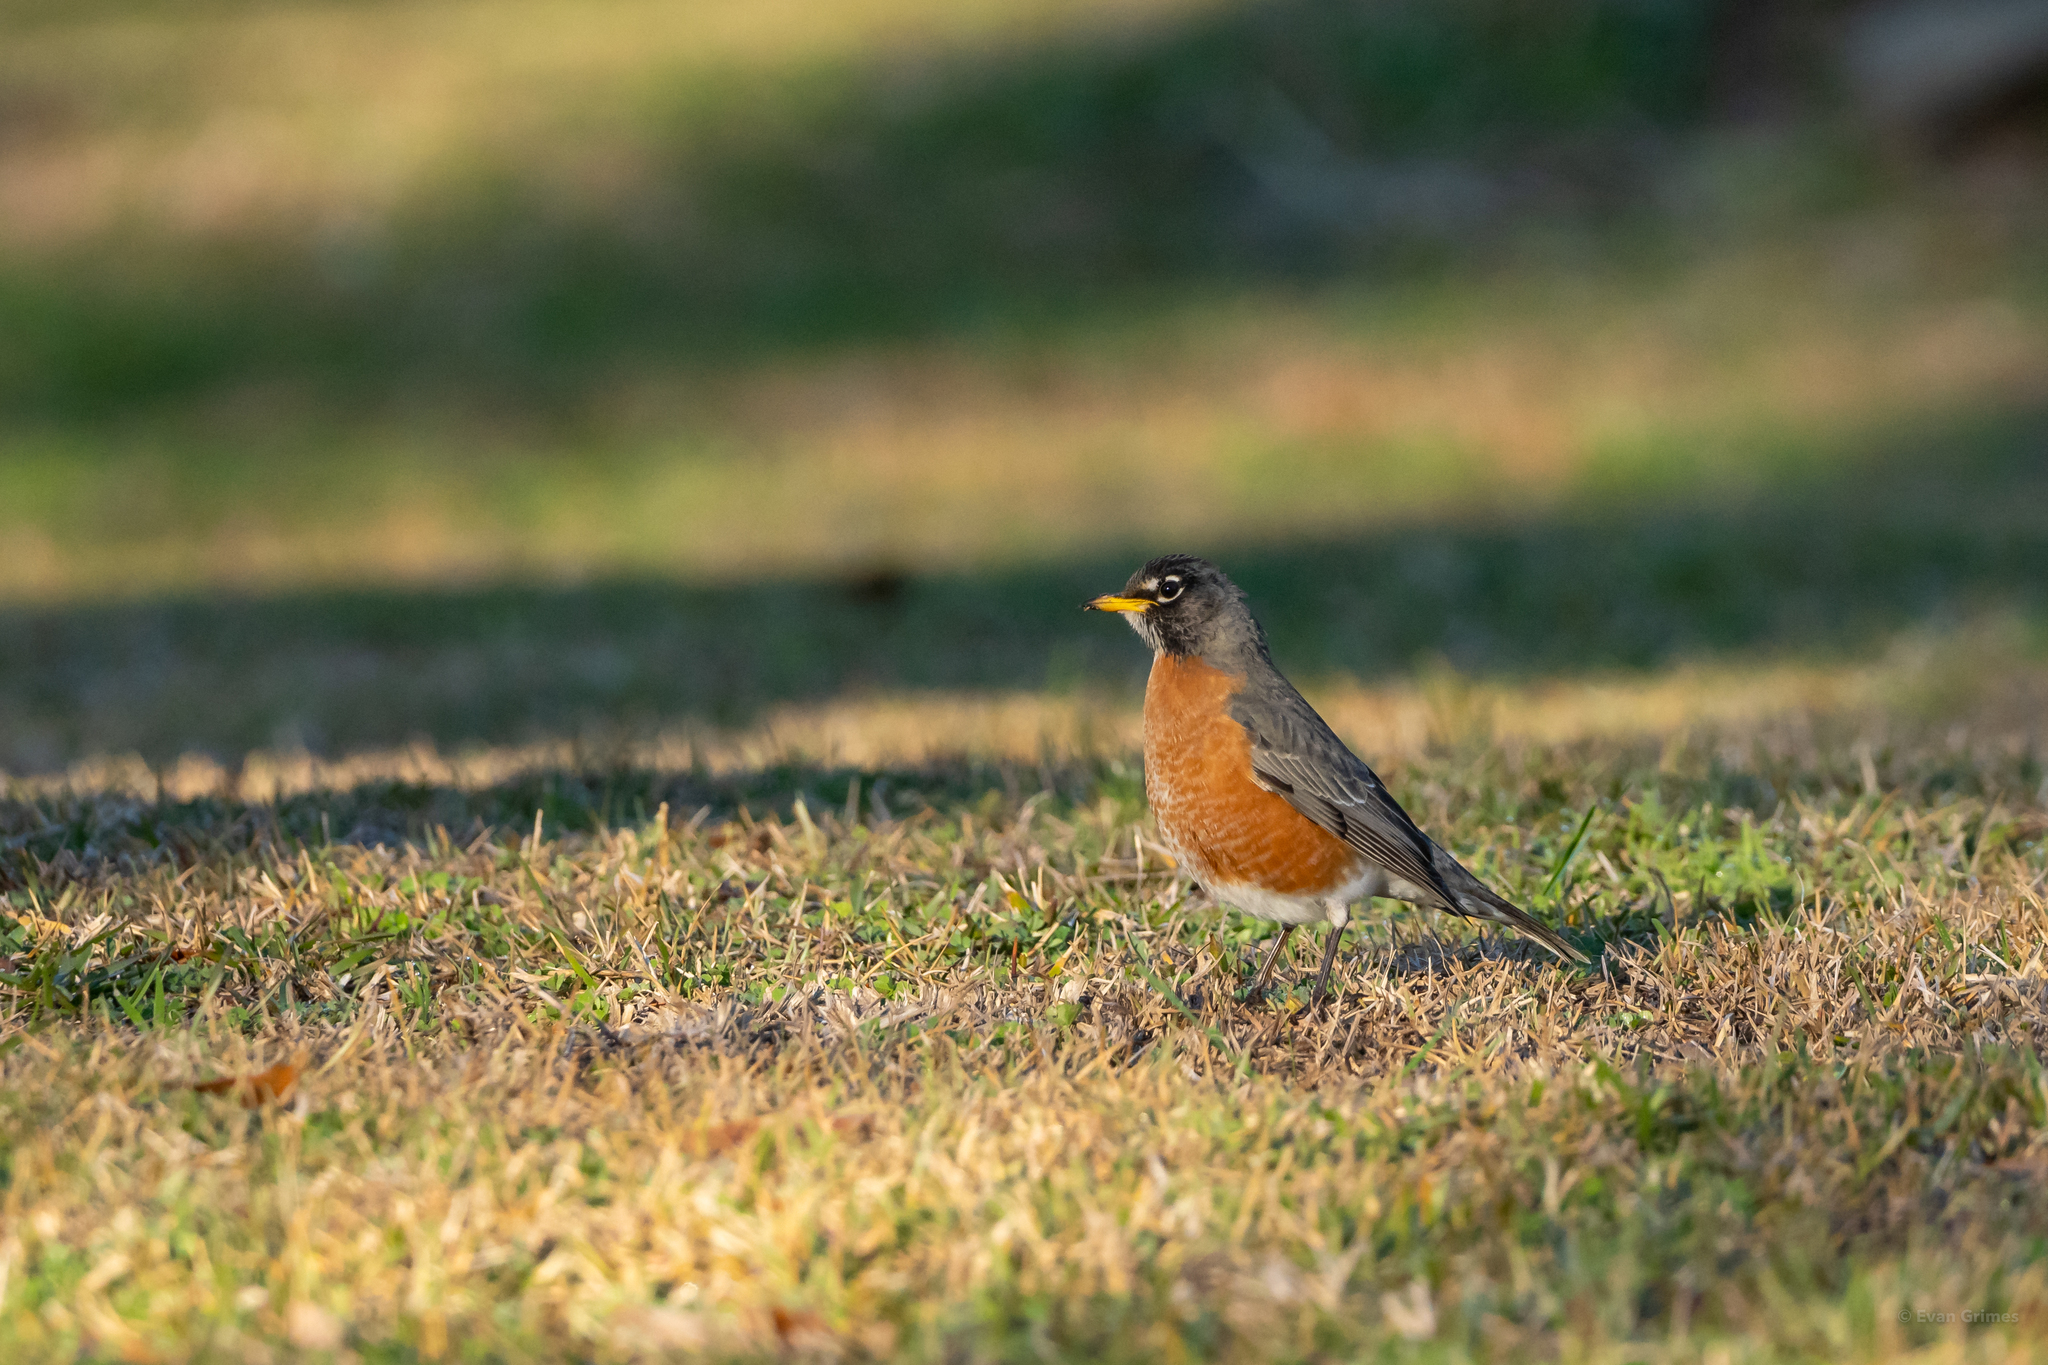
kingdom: Animalia
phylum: Chordata
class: Aves
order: Passeriformes
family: Turdidae
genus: Turdus
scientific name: Turdus migratorius
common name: American robin
